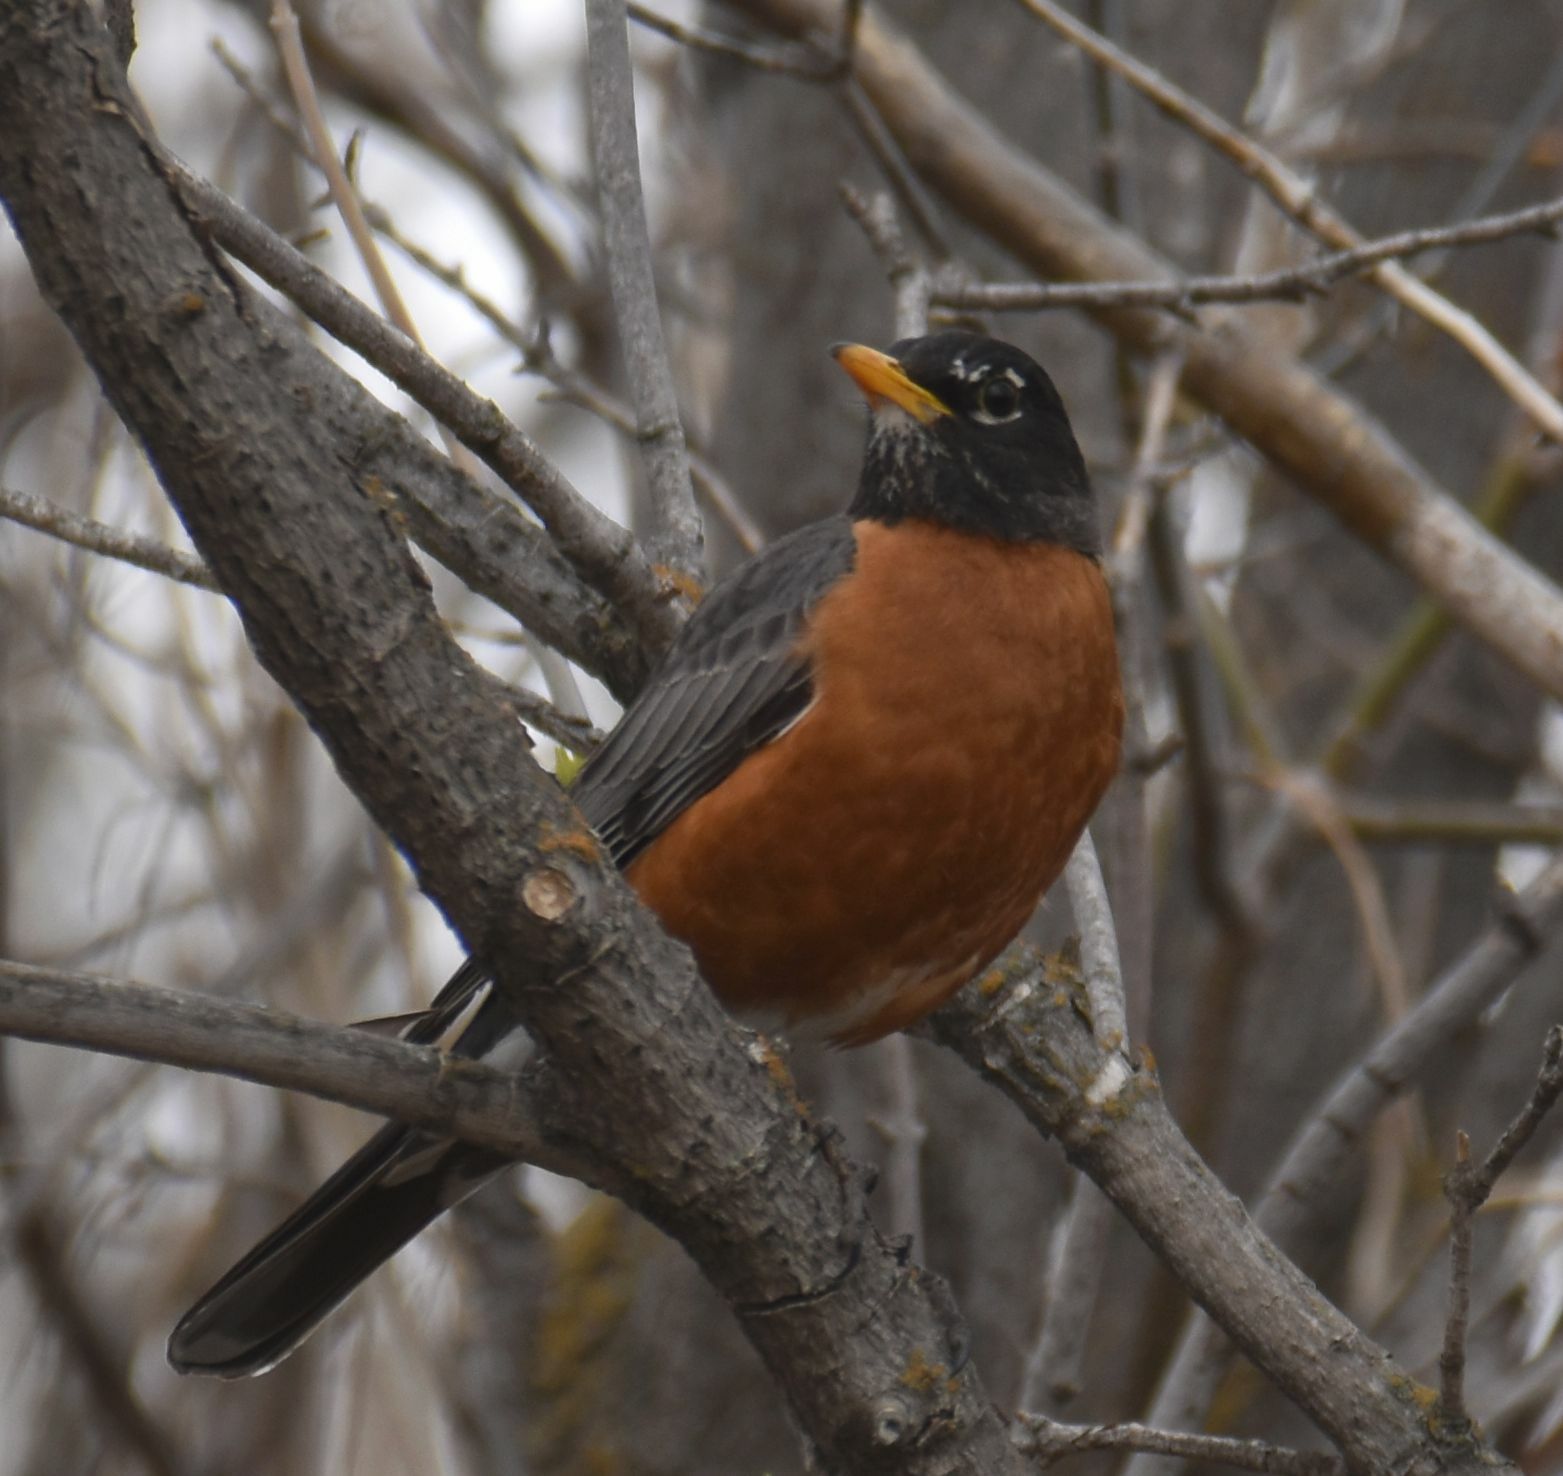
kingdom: Animalia
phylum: Chordata
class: Aves
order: Passeriformes
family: Turdidae
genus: Turdus
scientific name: Turdus migratorius
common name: American robin
